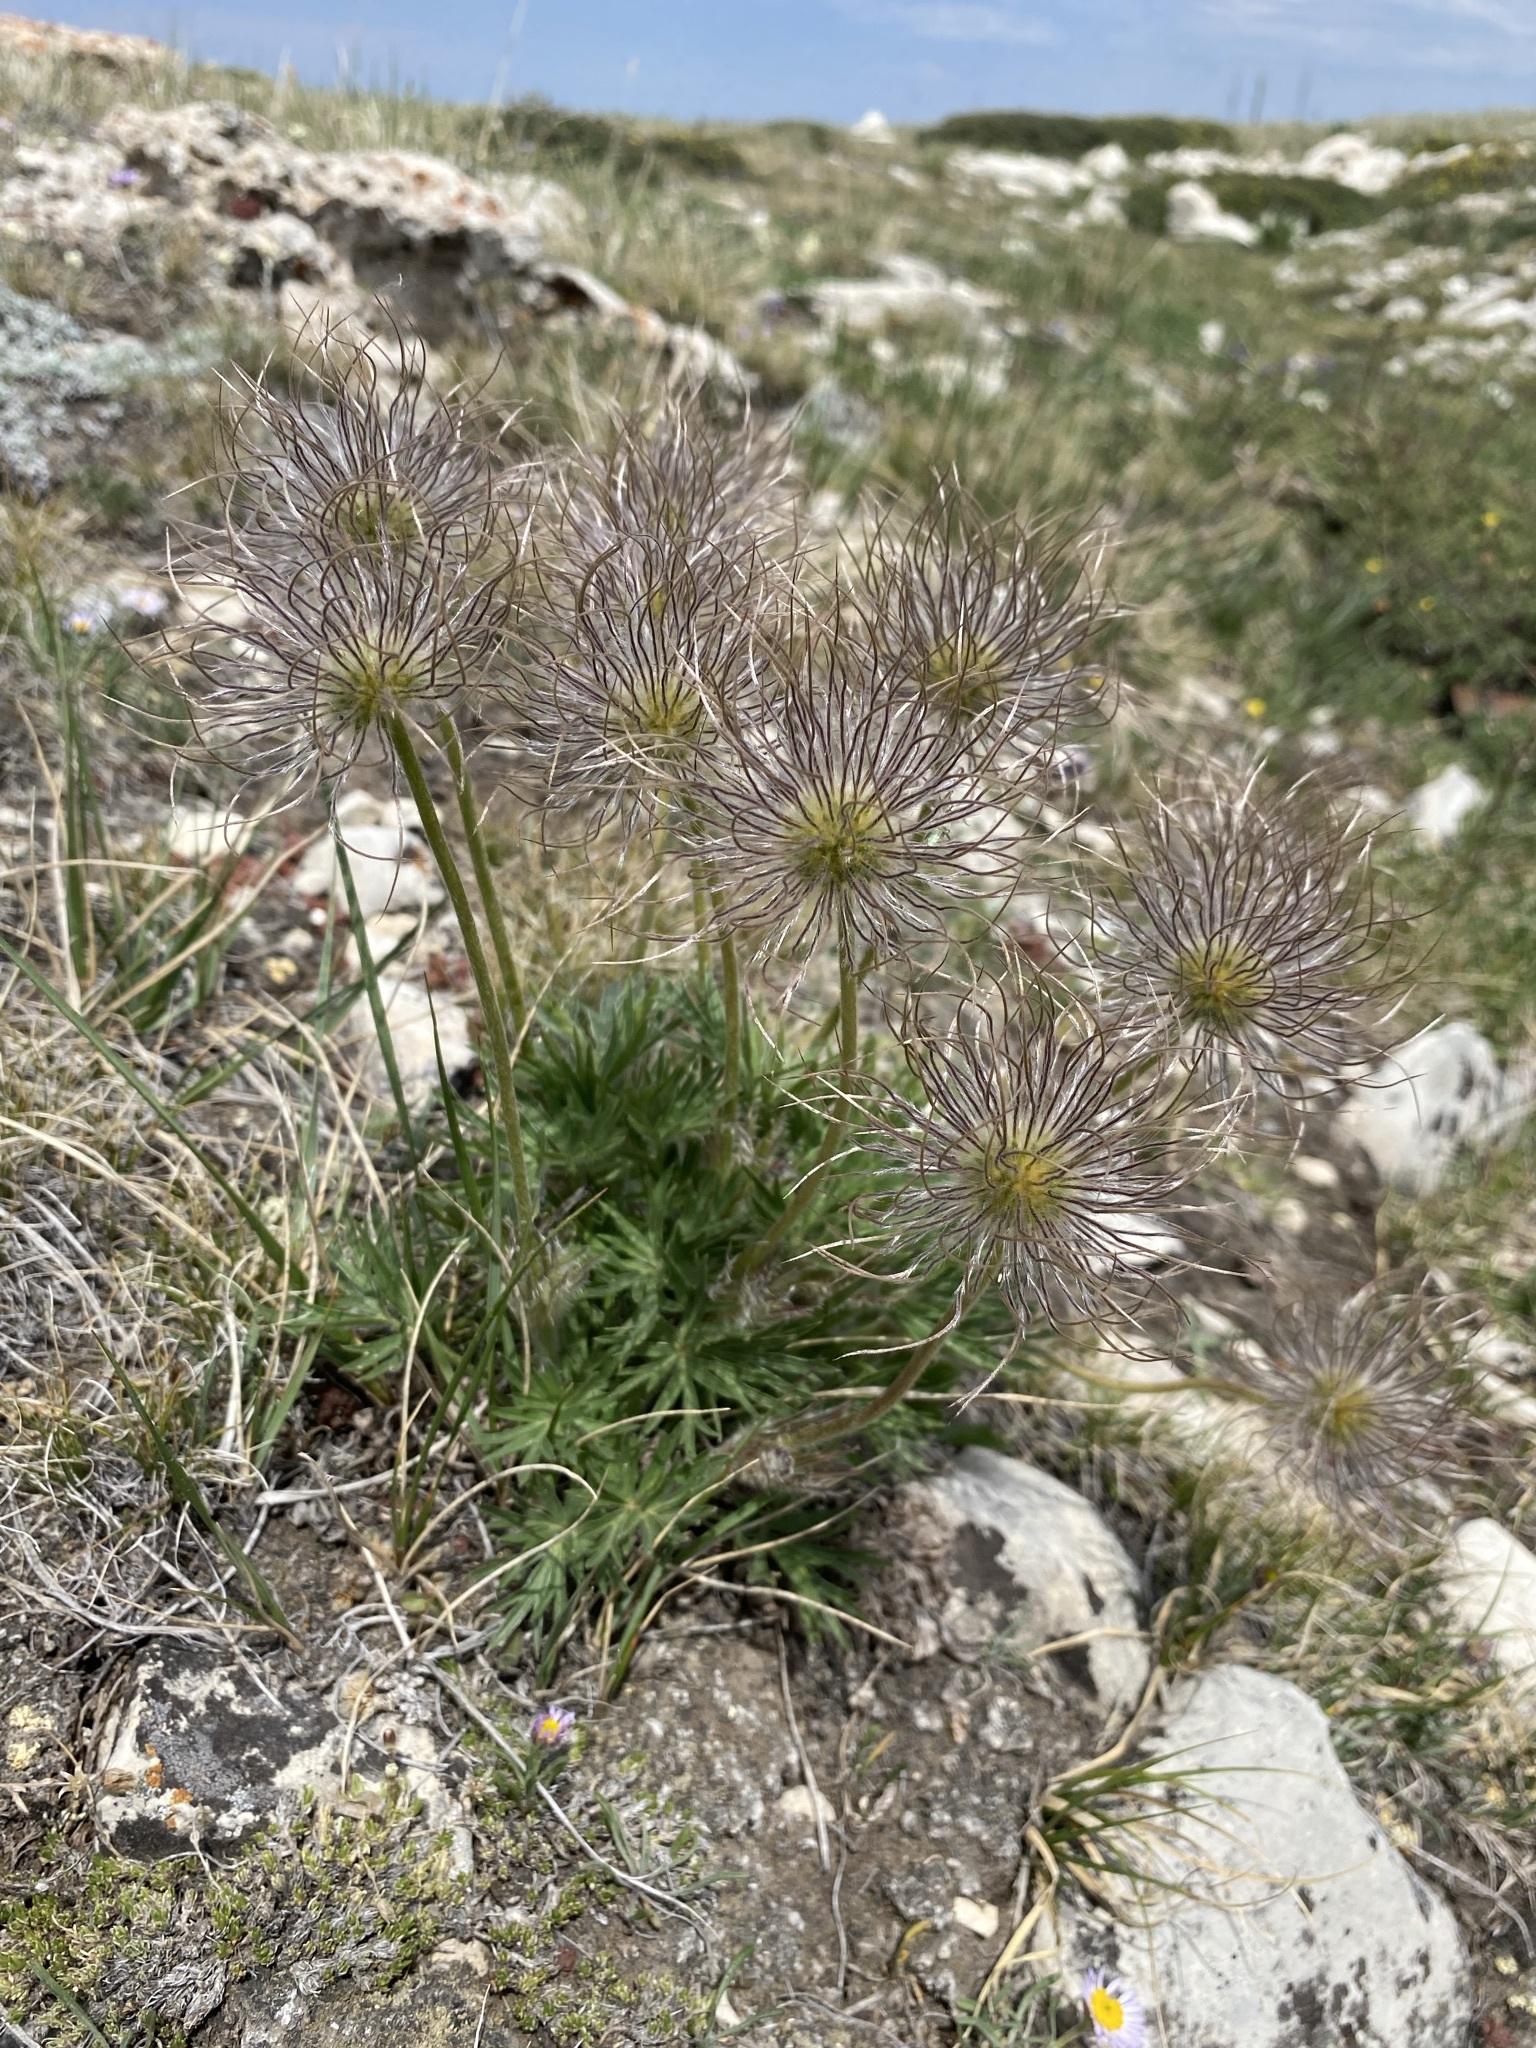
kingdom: Plantae
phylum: Tracheophyta
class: Magnoliopsida
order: Ranunculales
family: Ranunculaceae
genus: Pulsatilla
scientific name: Pulsatilla nuttalliana
